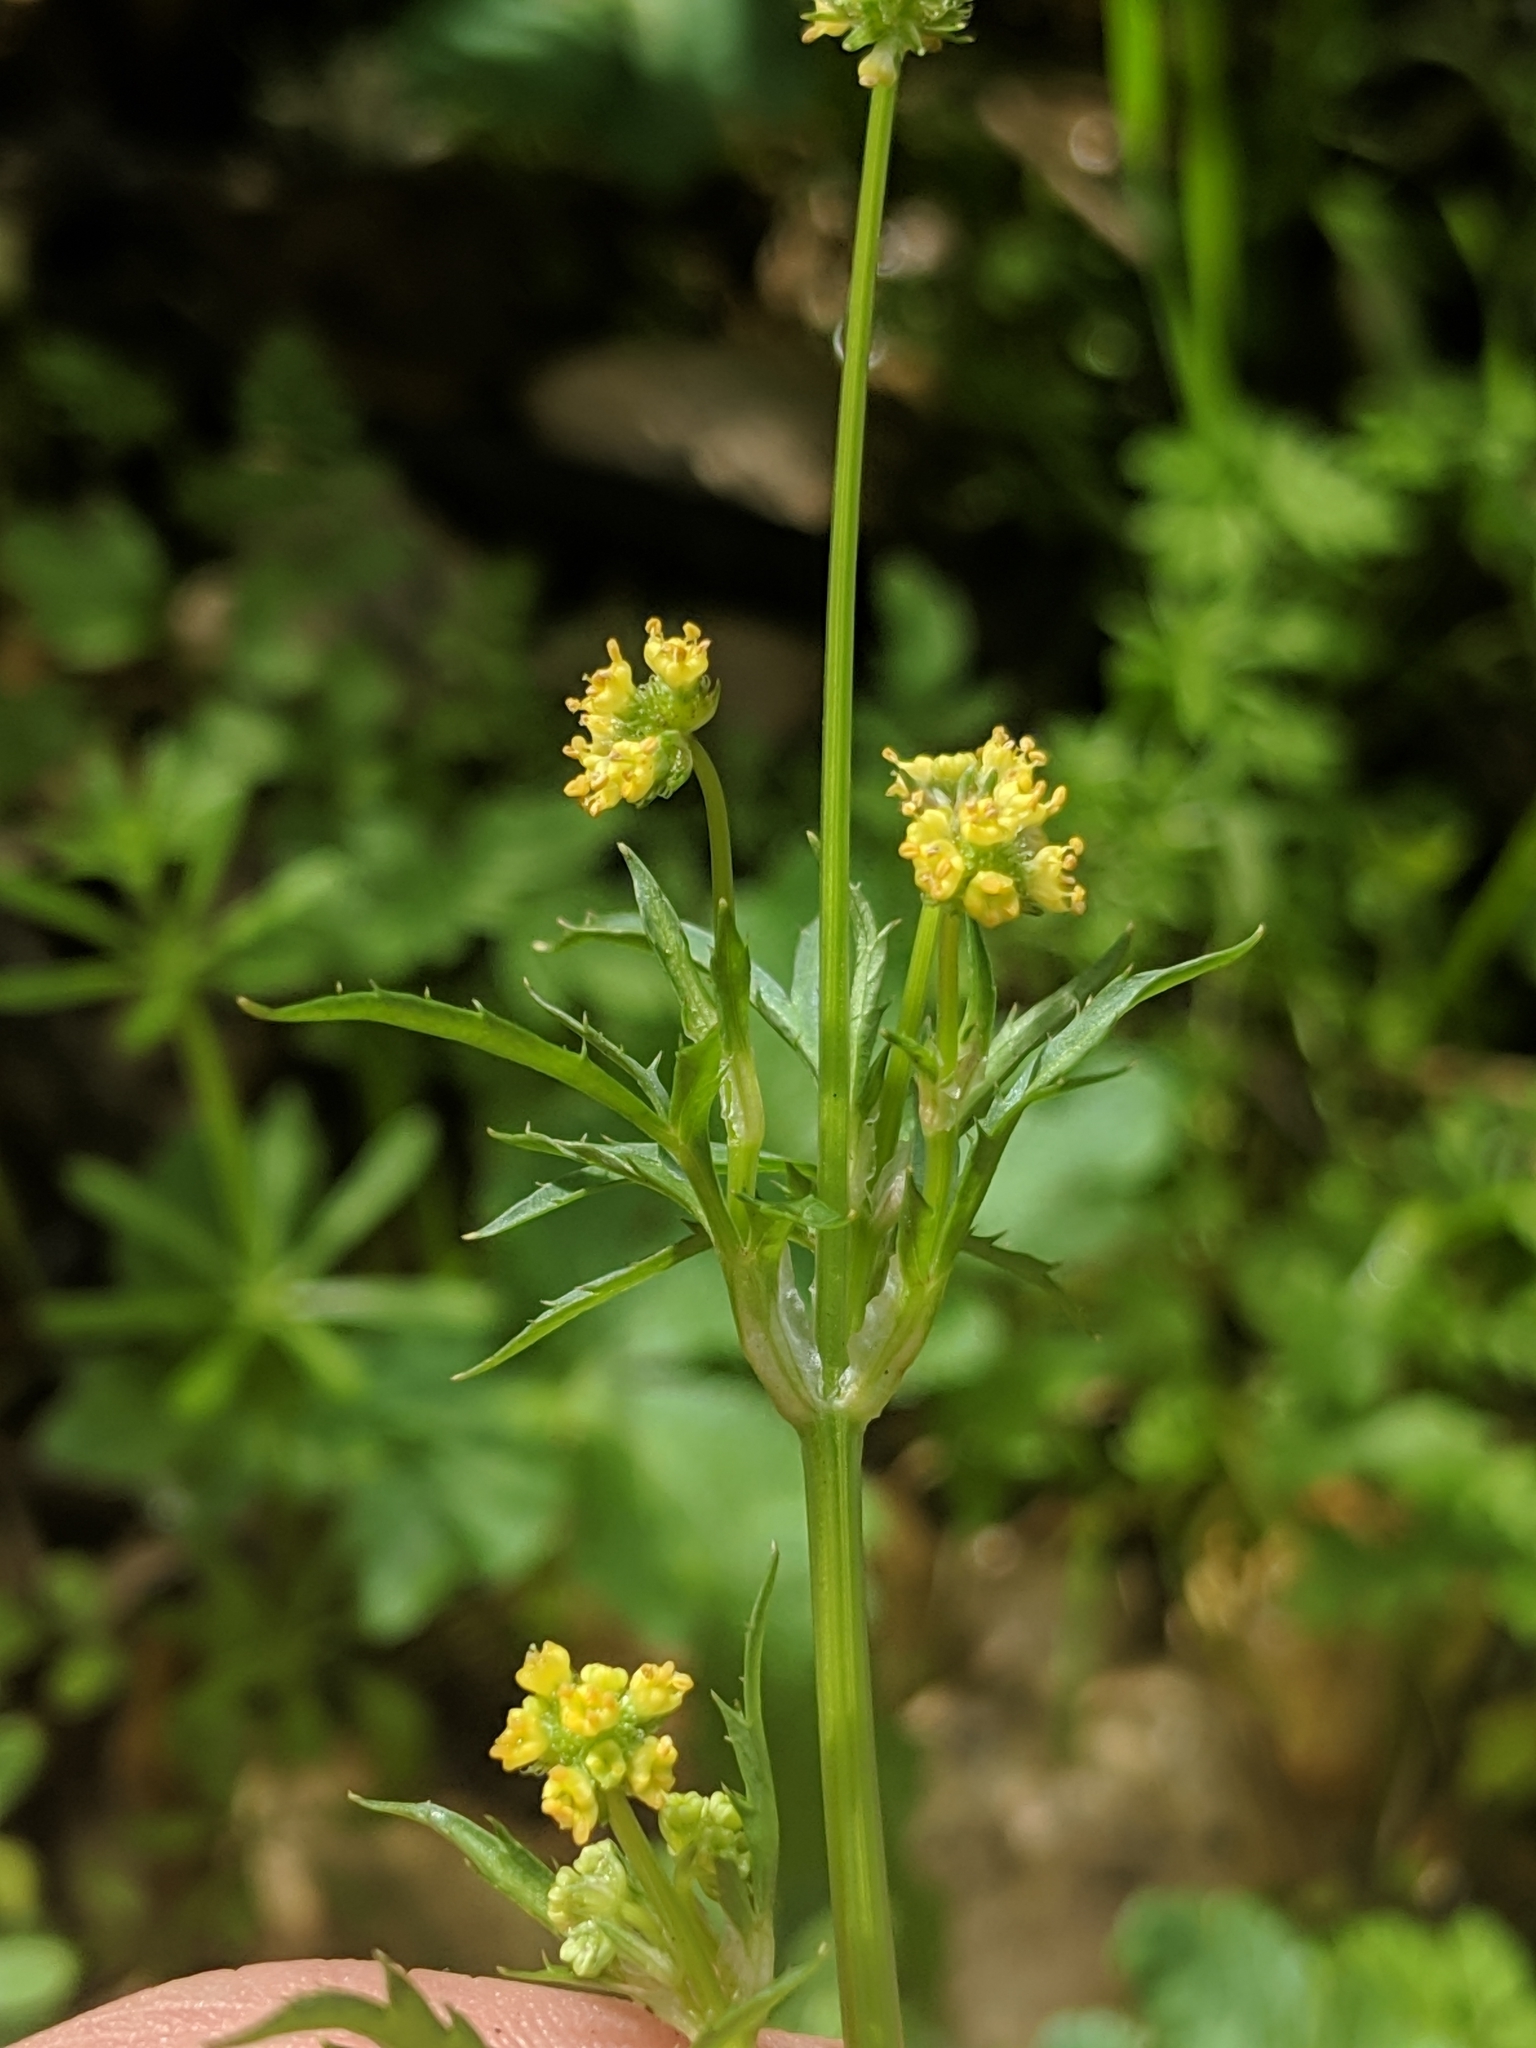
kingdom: Plantae
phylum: Tracheophyta
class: Magnoliopsida
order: Apiales
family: Apiaceae
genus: Sanicula
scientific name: Sanicula bipinnata
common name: Poison sanicle
